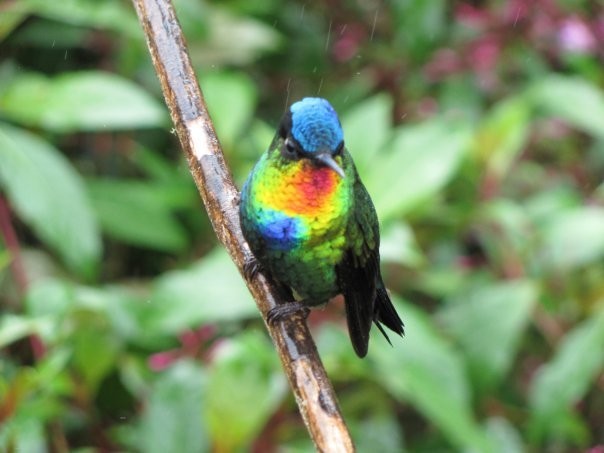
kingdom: Animalia
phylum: Chordata
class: Aves
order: Apodiformes
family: Trochilidae
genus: Panterpe
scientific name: Panterpe insignis
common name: Fiery-throated hummingbird
